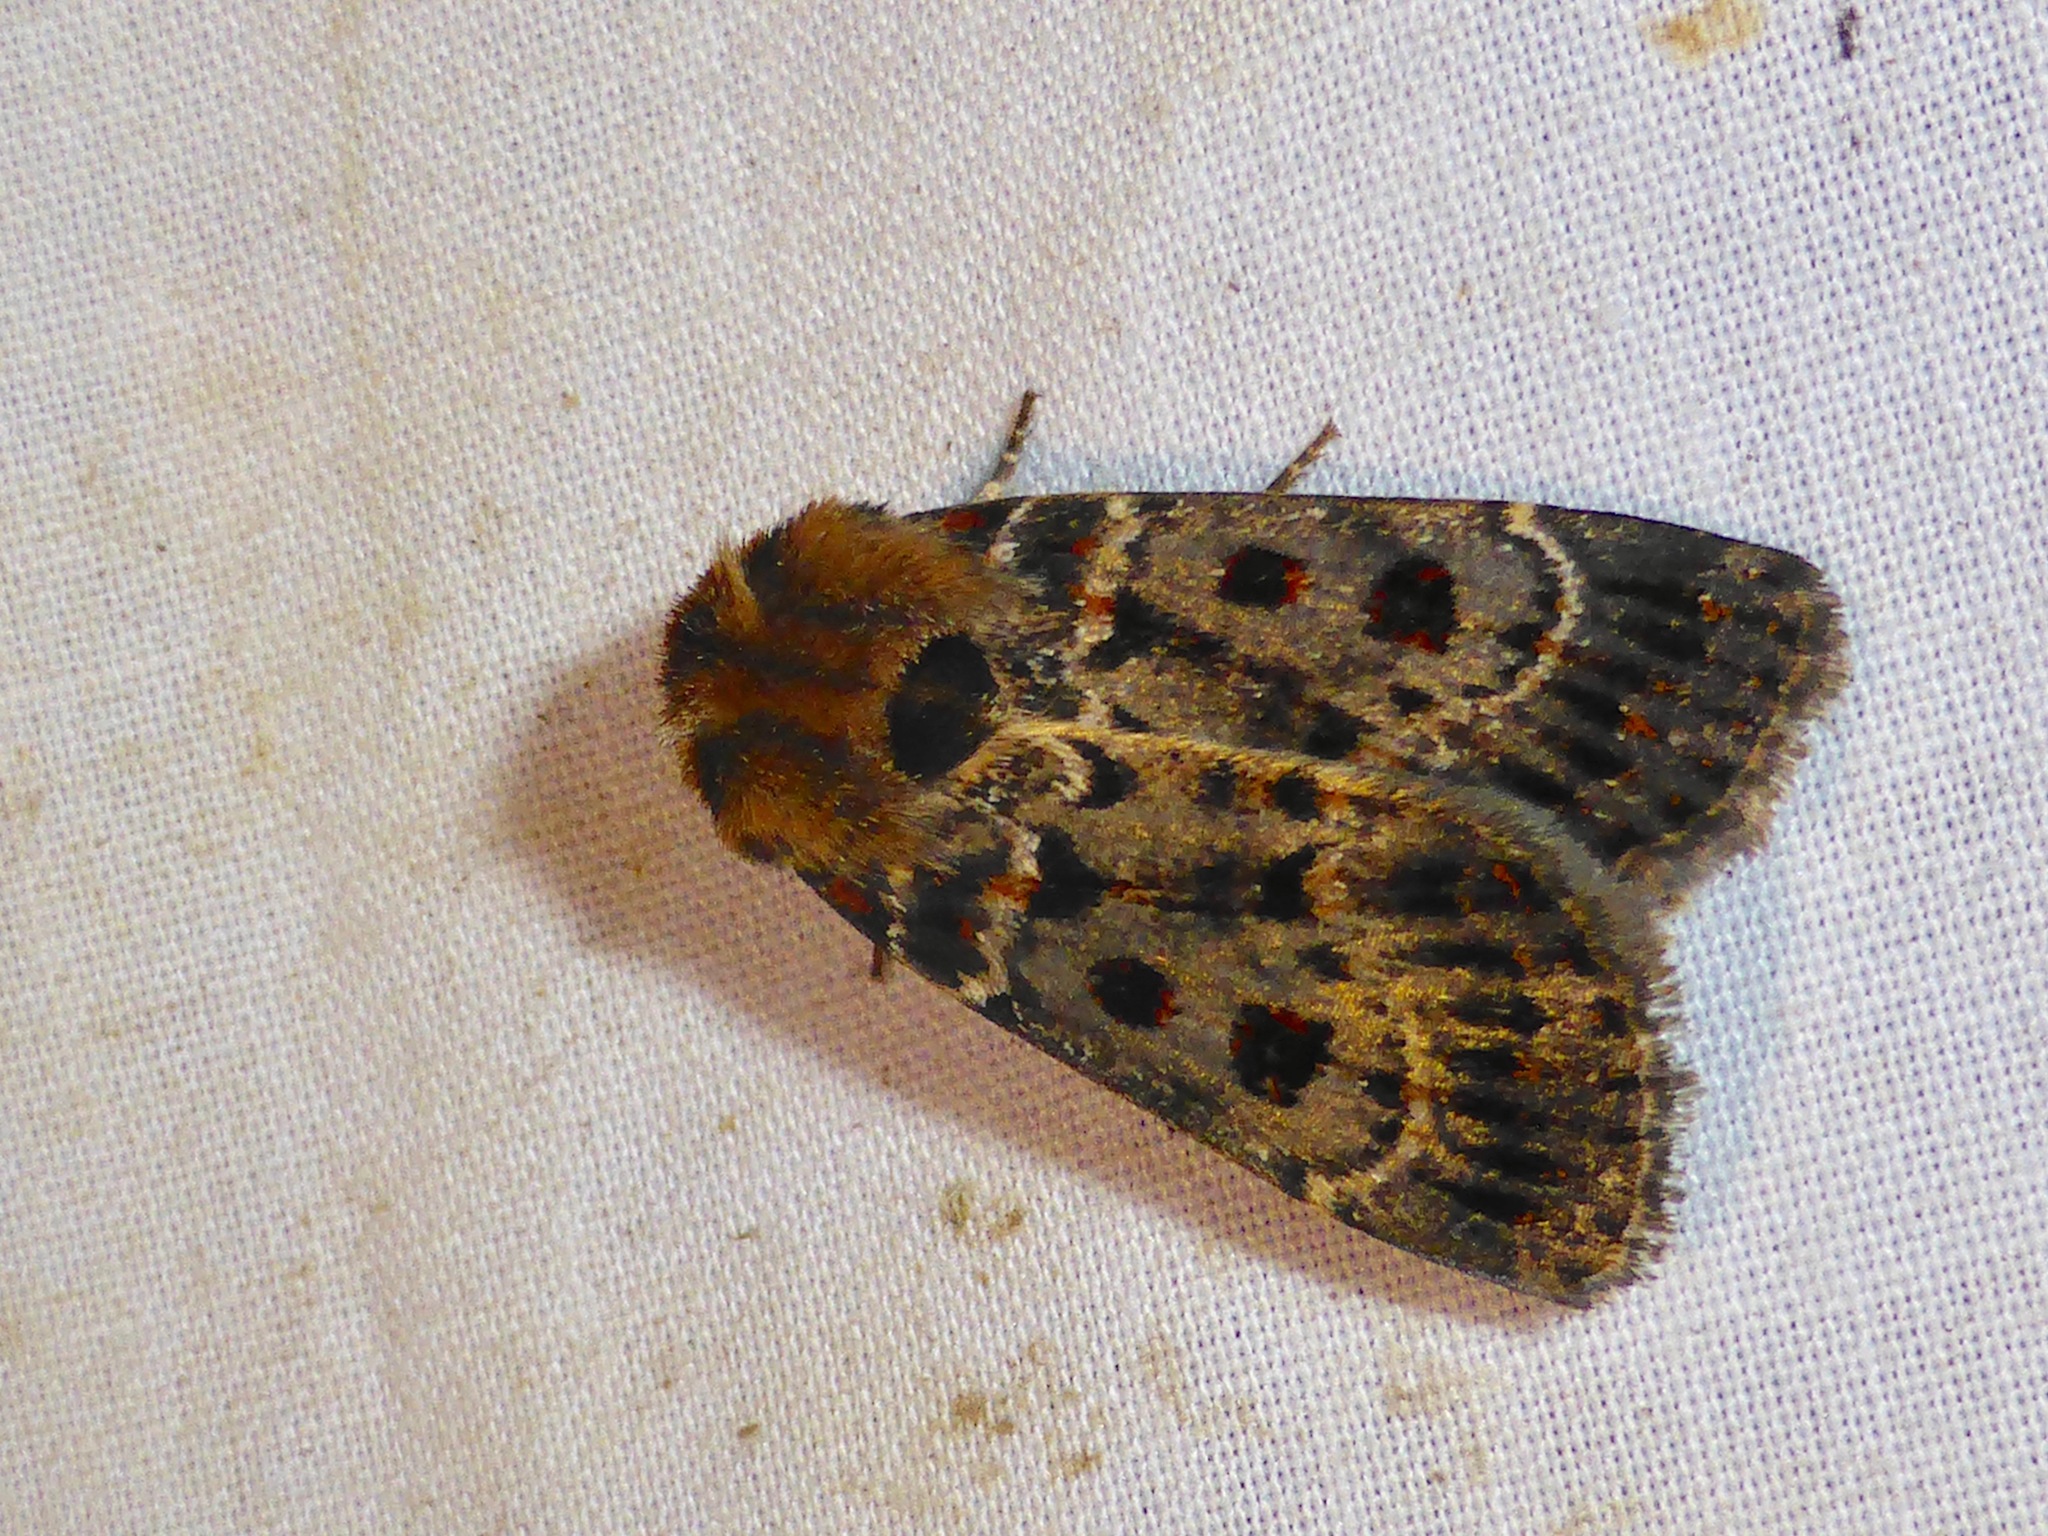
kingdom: Animalia
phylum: Arthropoda
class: Insecta
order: Lepidoptera
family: Noctuidae
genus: Proteuxoa
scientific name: Proteuxoa sanguinipuncta
